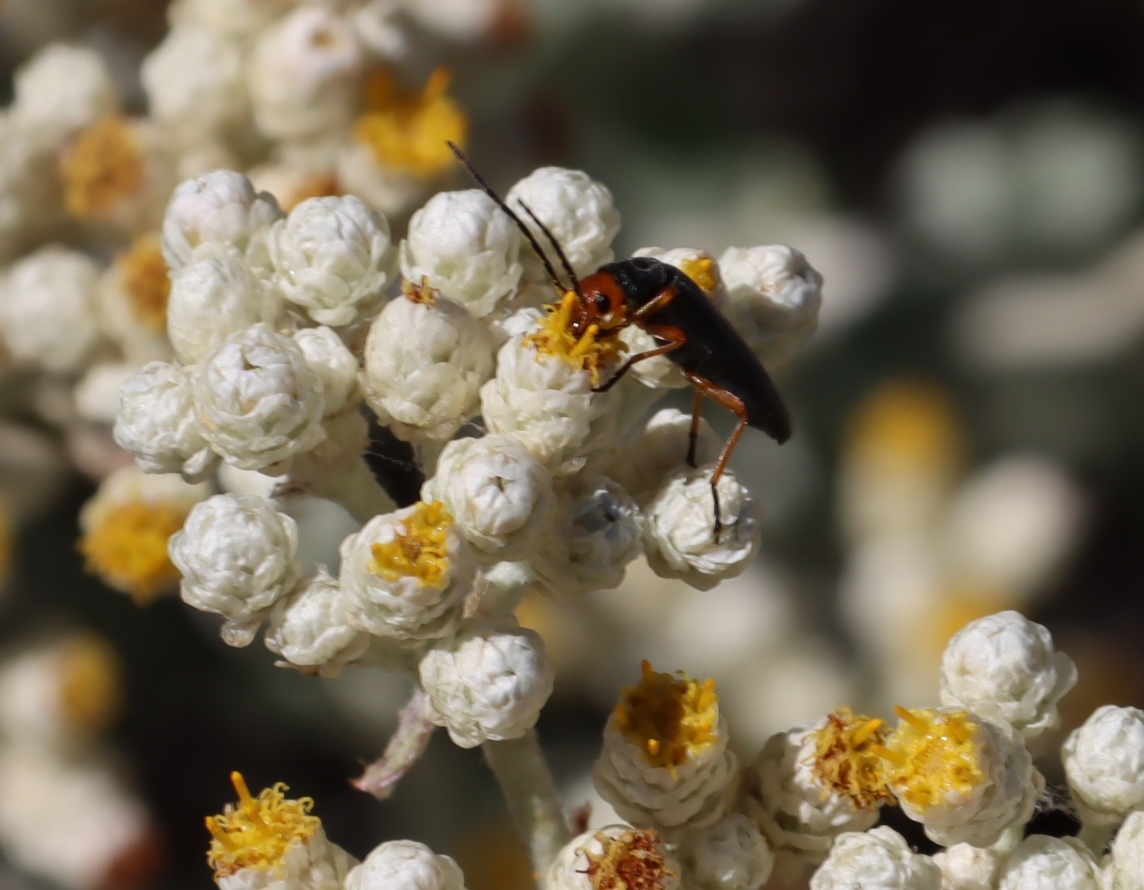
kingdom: Animalia
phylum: Arthropoda
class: Insecta
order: Coleoptera
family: Oedemeridae
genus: Melananthia
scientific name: Melananthia
